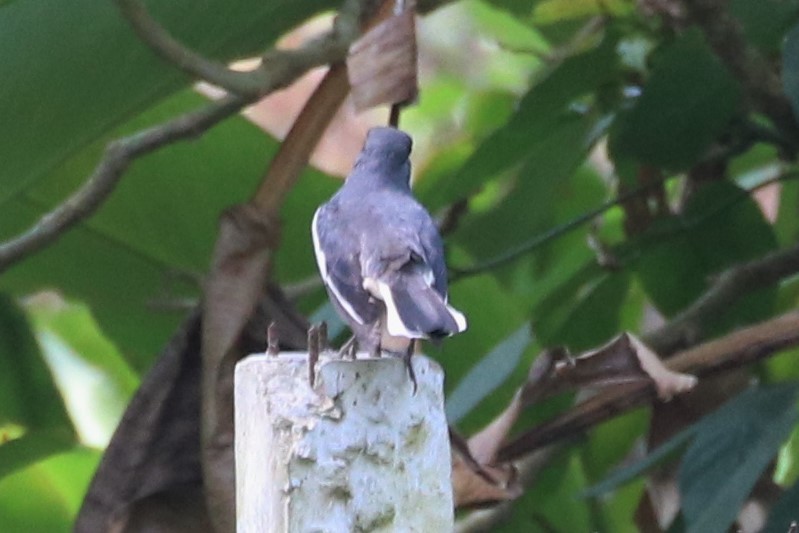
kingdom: Animalia
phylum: Chordata
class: Aves
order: Passeriformes
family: Muscicapidae
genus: Copsychus
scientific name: Copsychus saularis
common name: Oriental magpie-robin
